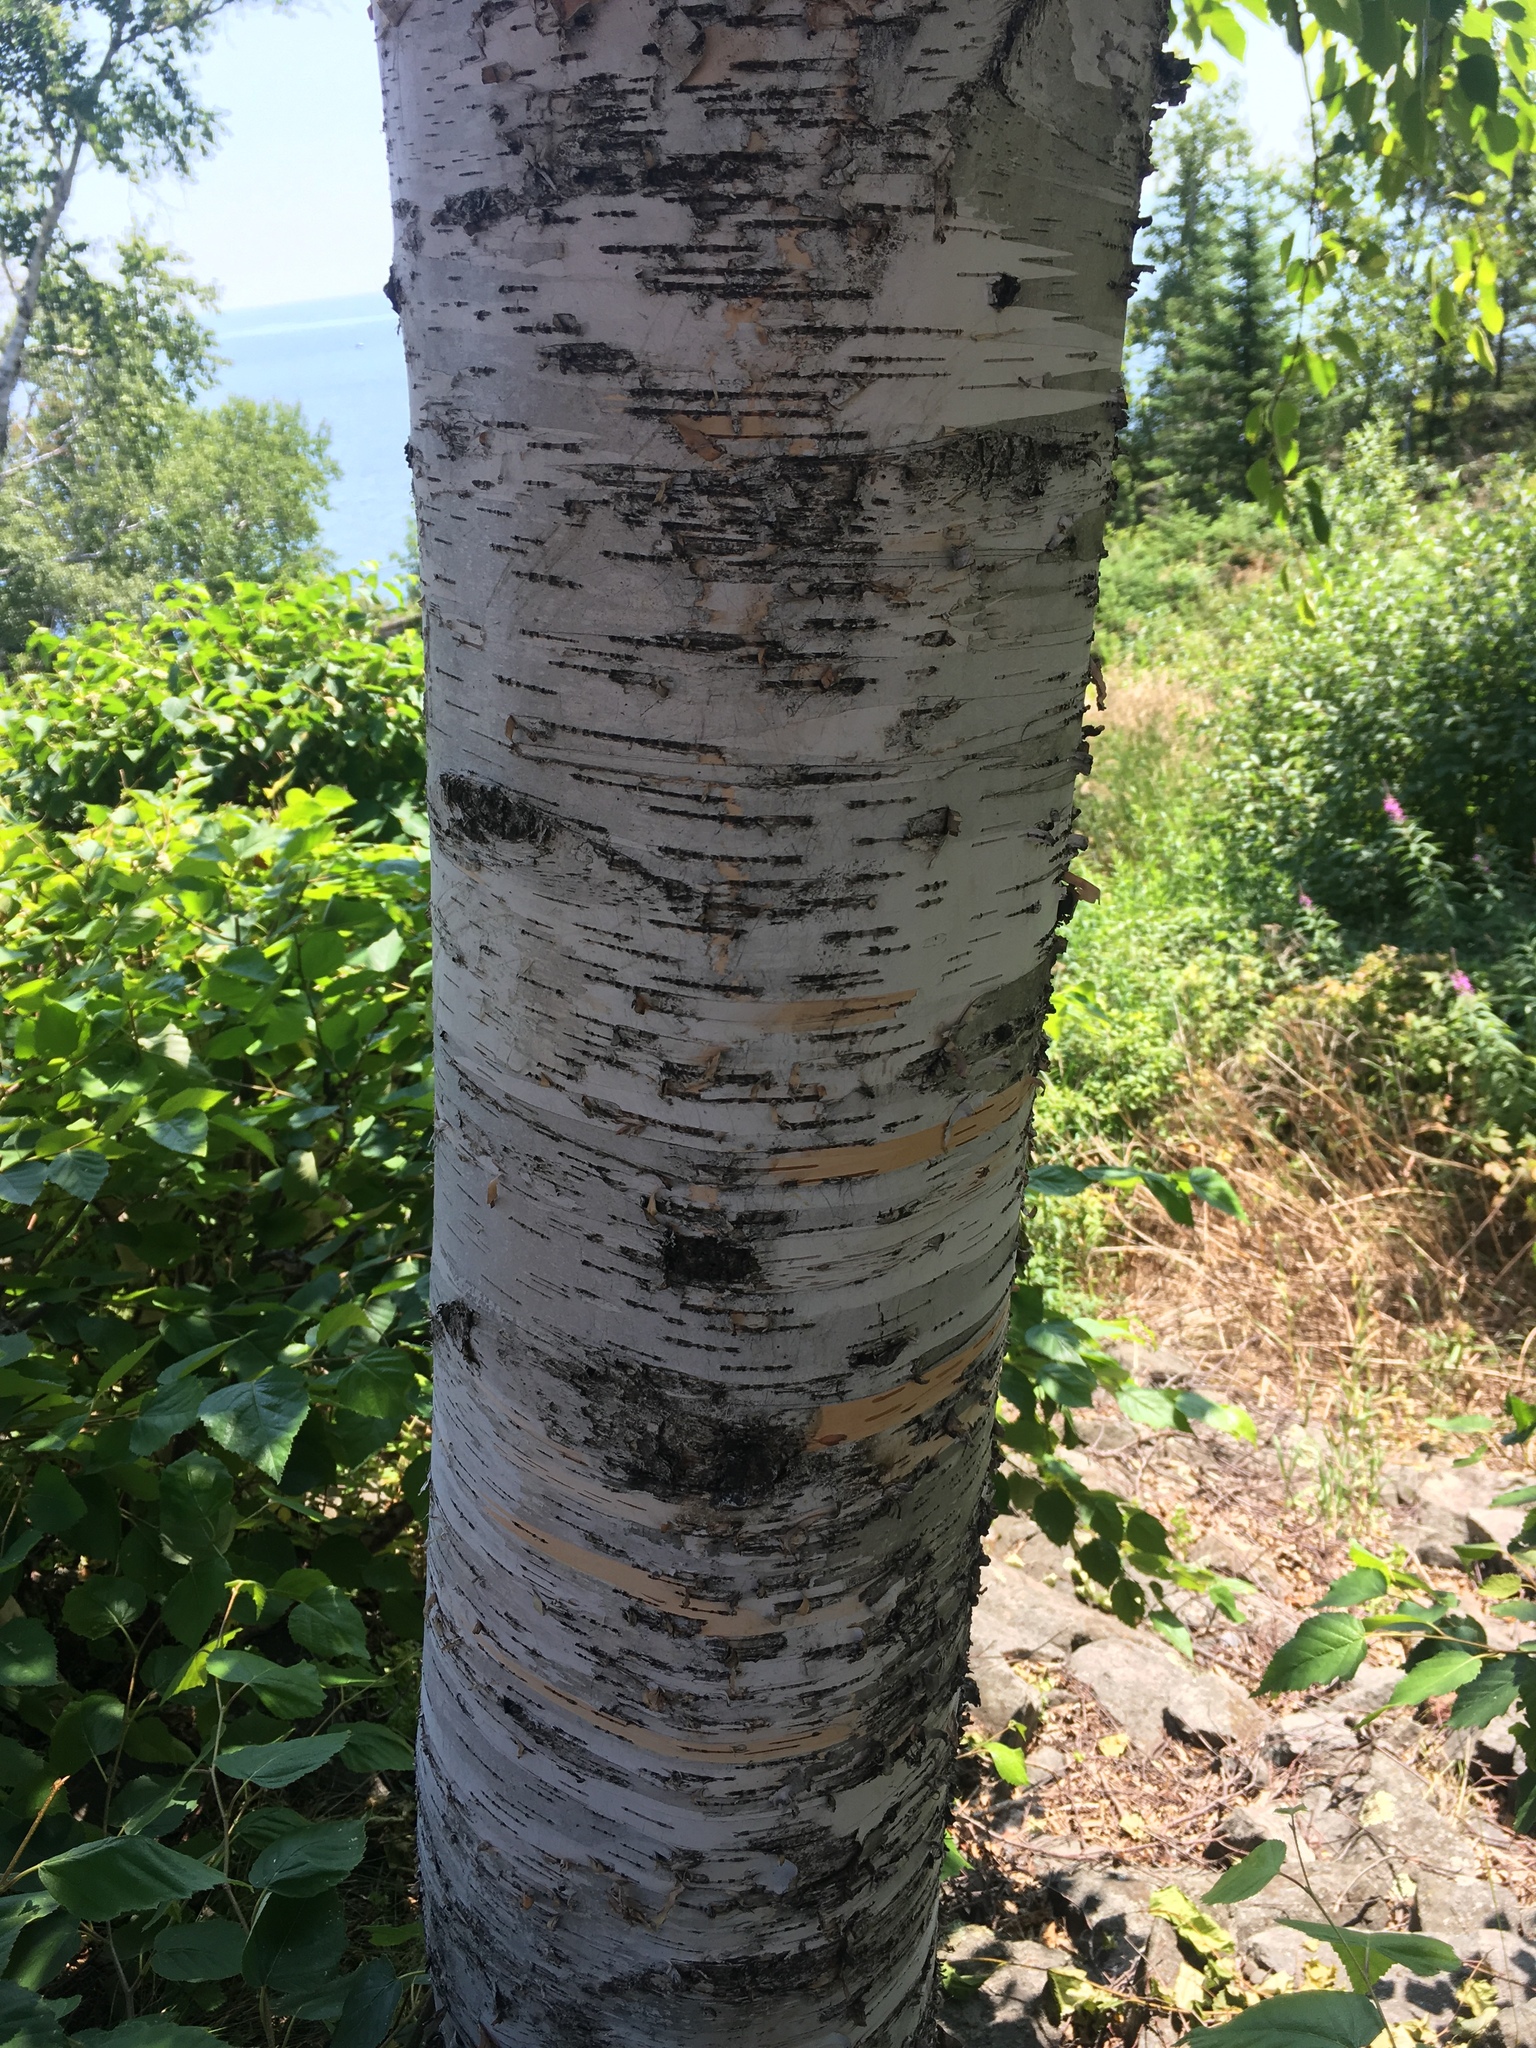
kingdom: Plantae
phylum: Tracheophyta
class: Magnoliopsida
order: Fagales
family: Betulaceae
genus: Betula
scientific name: Betula papyrifera
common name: Paper birch
